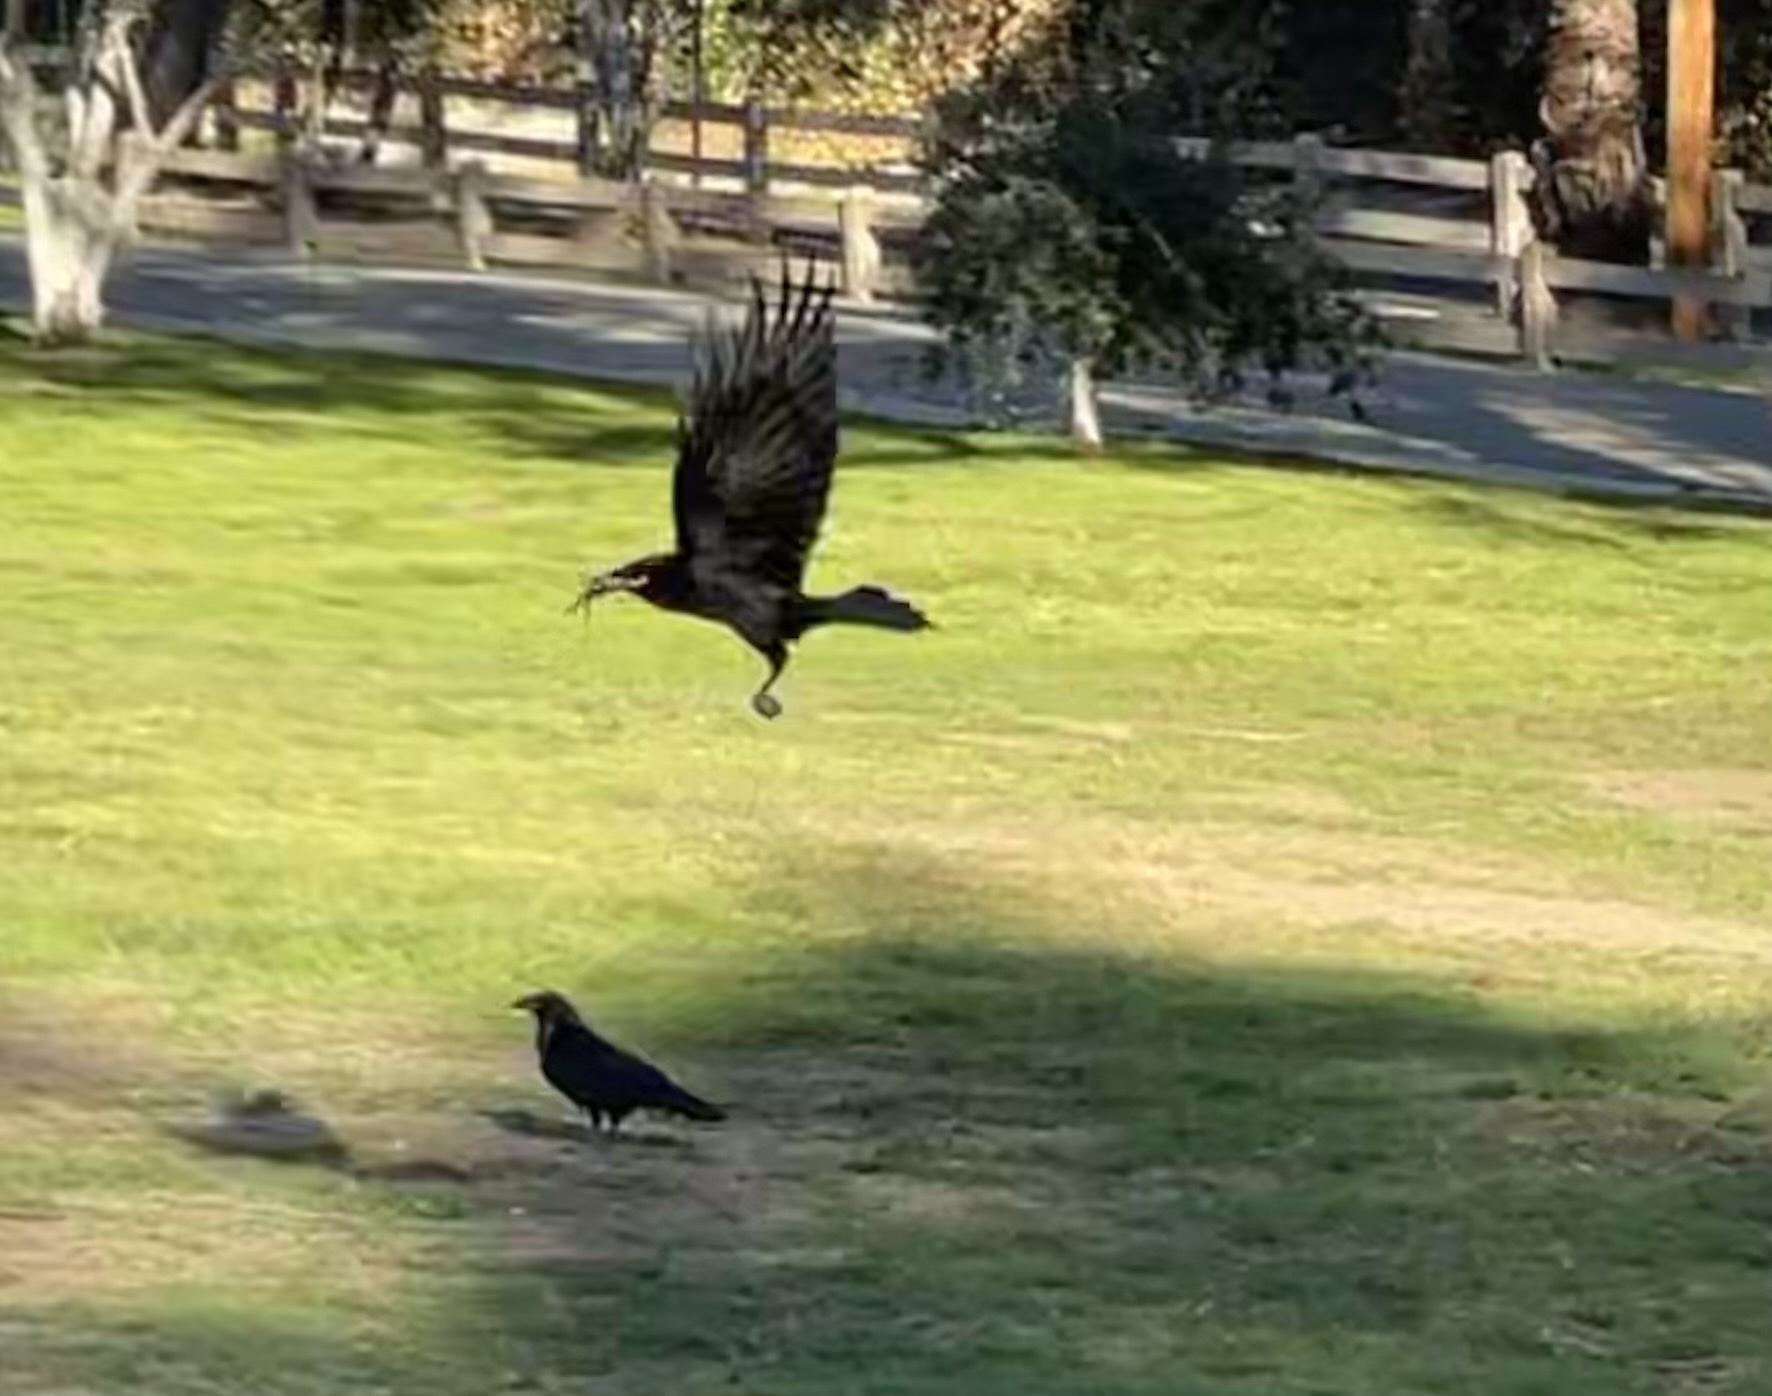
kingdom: Animalia
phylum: Chordata
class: Aves
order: Passeriformes
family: Corvidae
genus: Corvus
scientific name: Corvus corax
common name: Common raven
